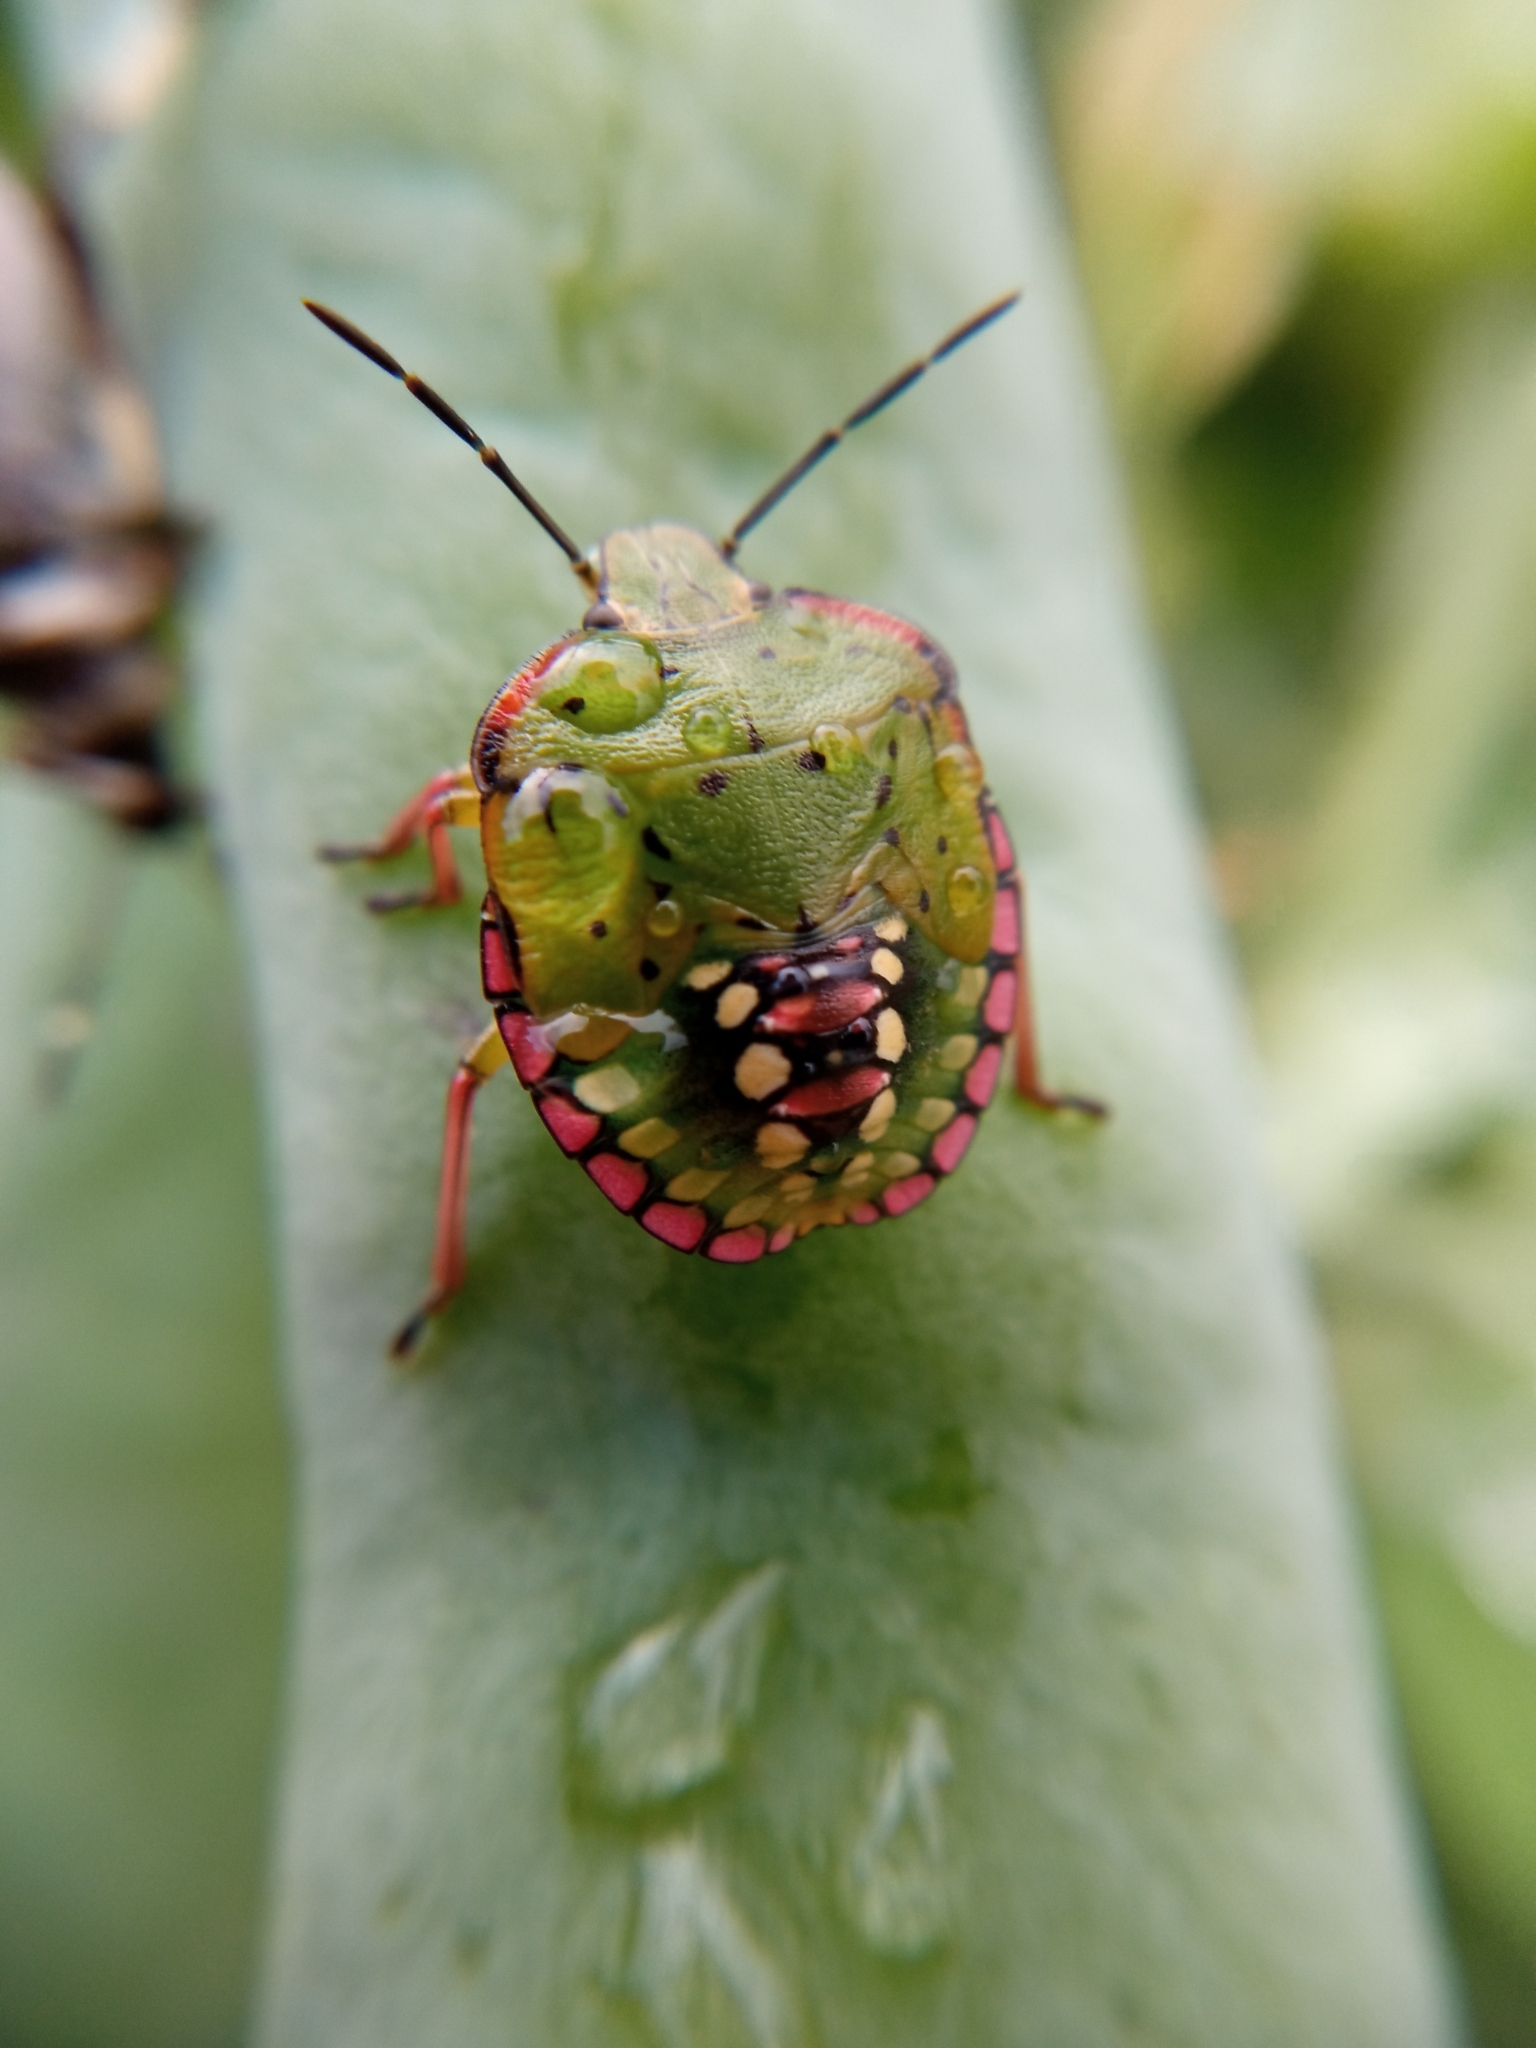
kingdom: Animalia
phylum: Arthropoda
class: Insecta
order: Hemiptera
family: Pentatomidae
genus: Nezara
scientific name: Nezara viridula
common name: Southern green stink bug
